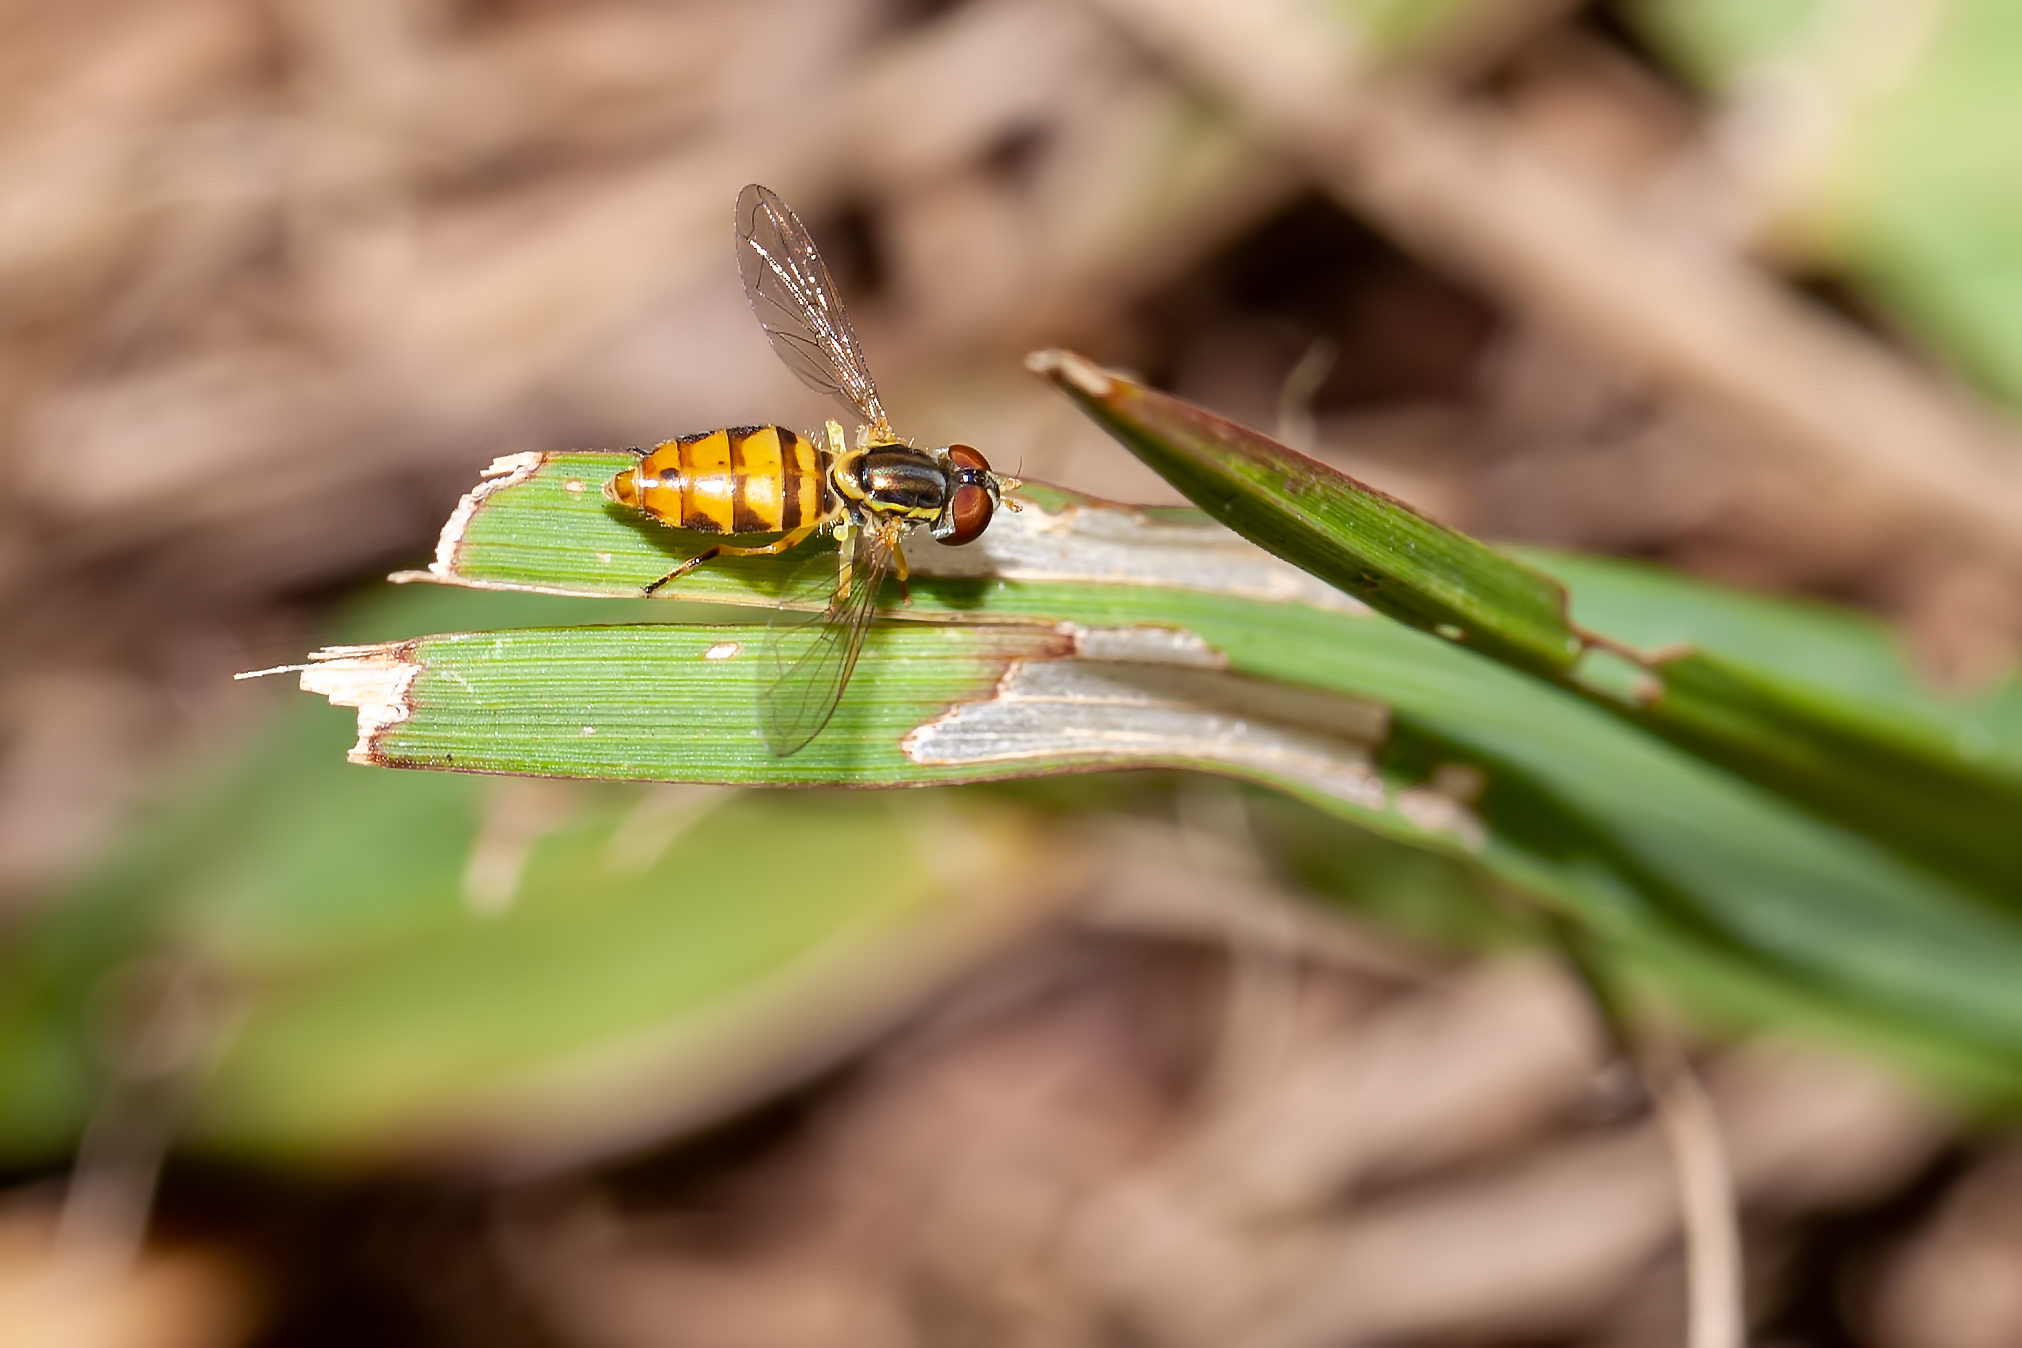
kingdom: Animalia
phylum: Arthropoda
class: Insecta
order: Diptera
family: Syrphidae
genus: Toxomerus
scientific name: Toxomerus floralis
